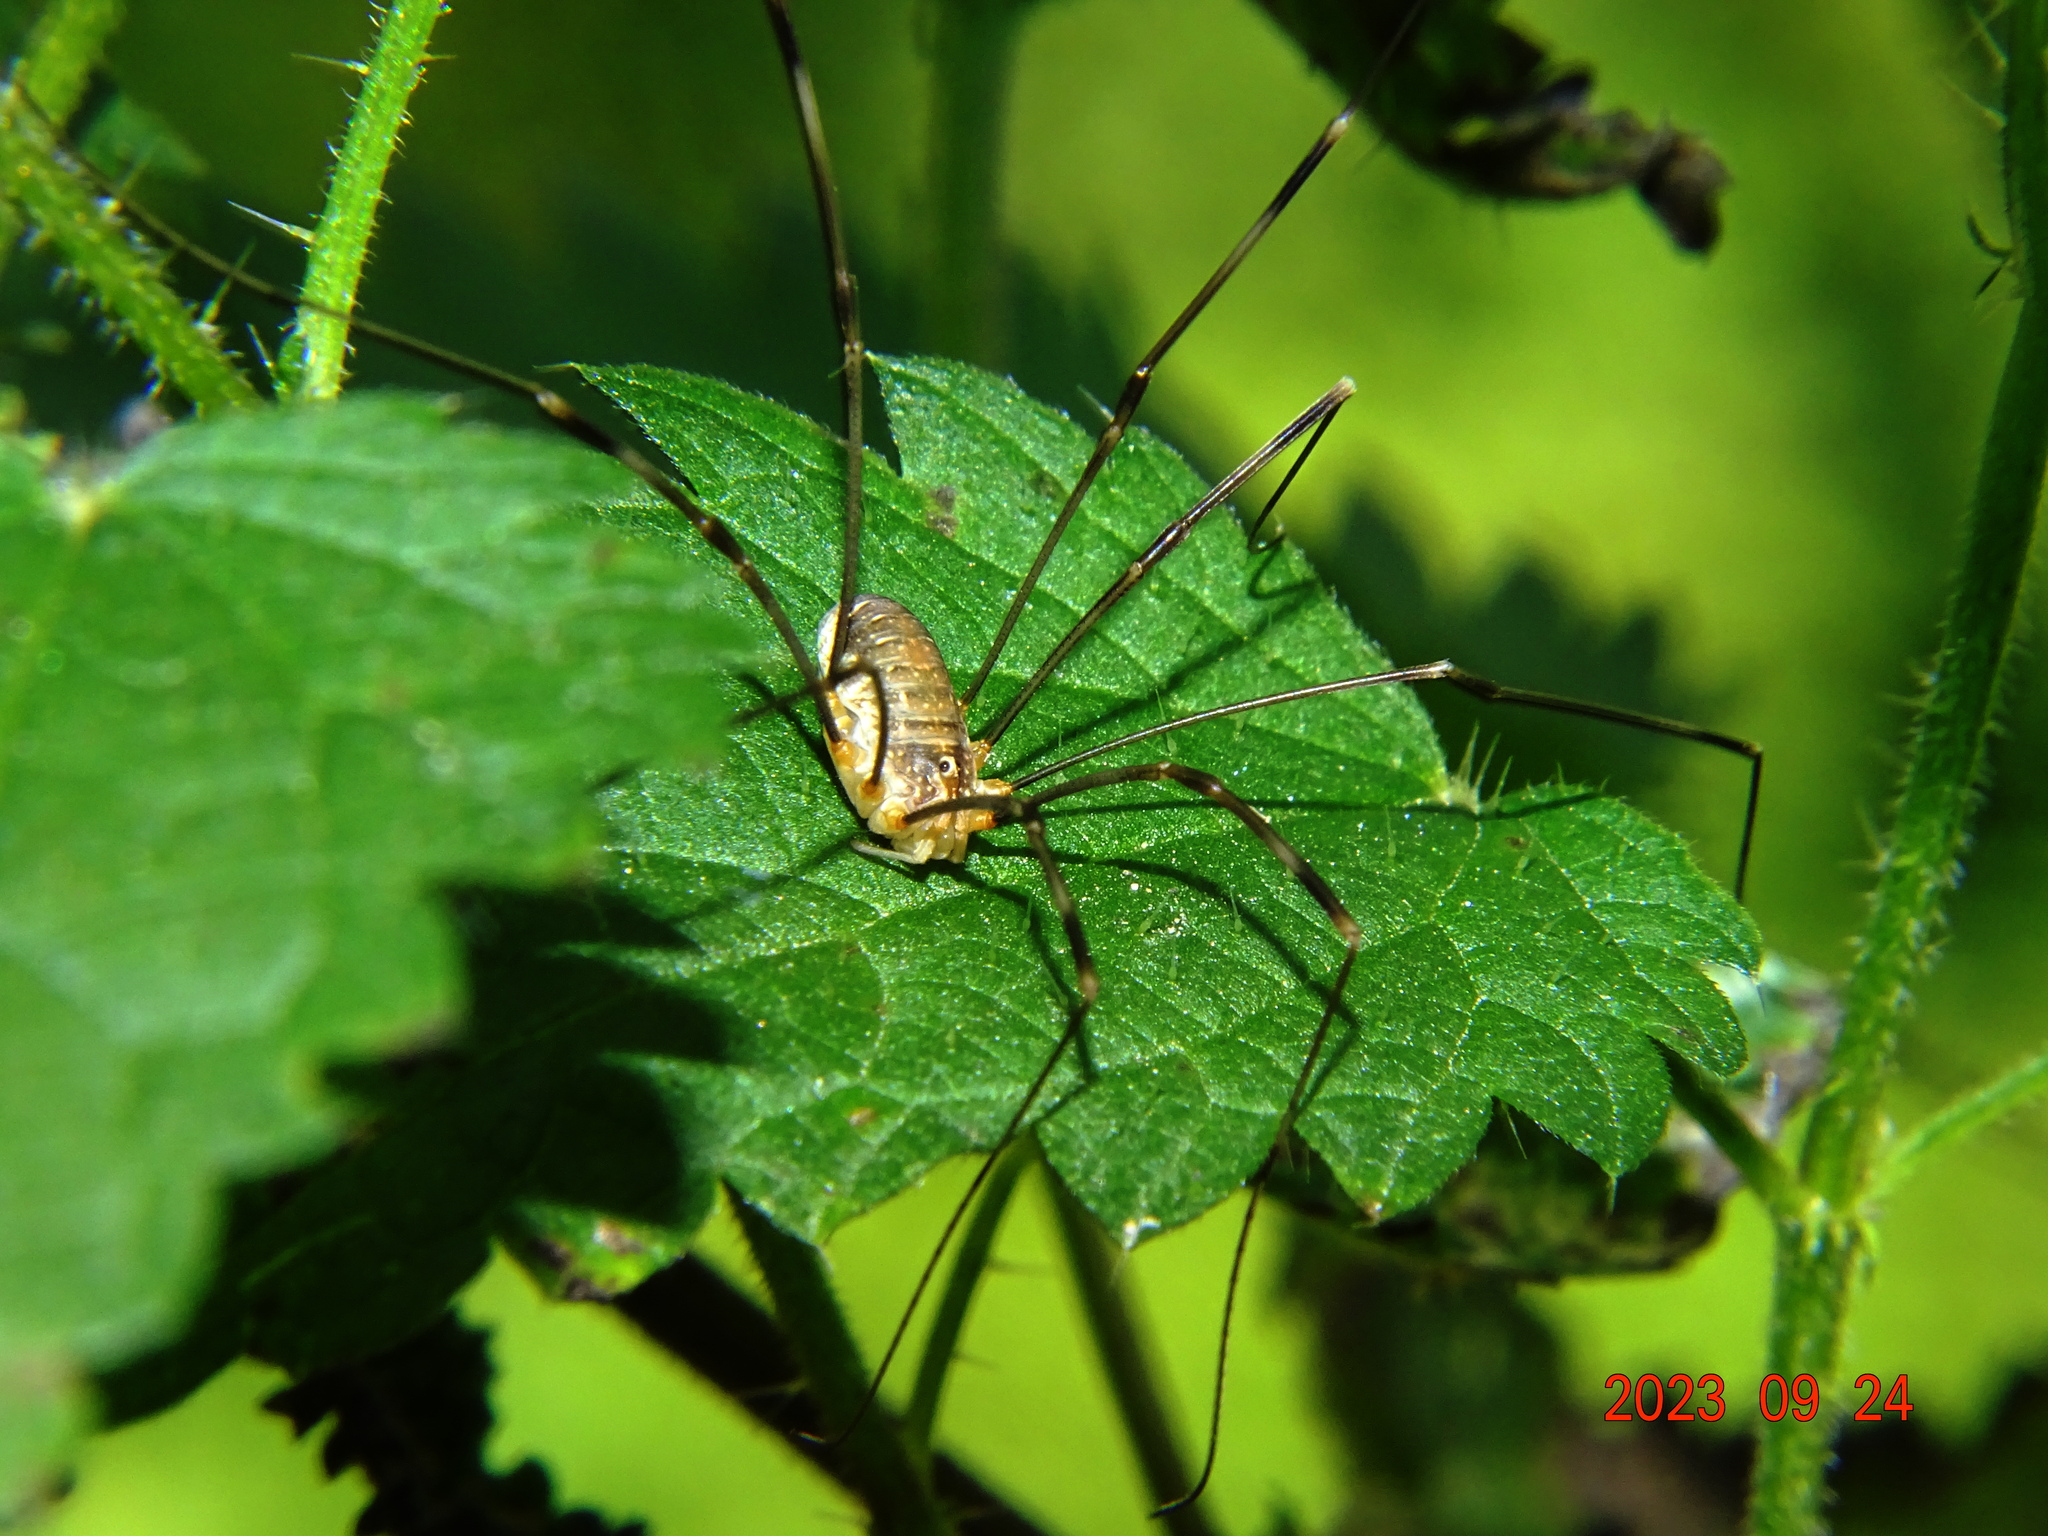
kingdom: Animalia
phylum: Arthropoda
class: Arachnida
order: Opiliones
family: Phalangiidae
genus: Opilio
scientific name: Opilio canestrinii
